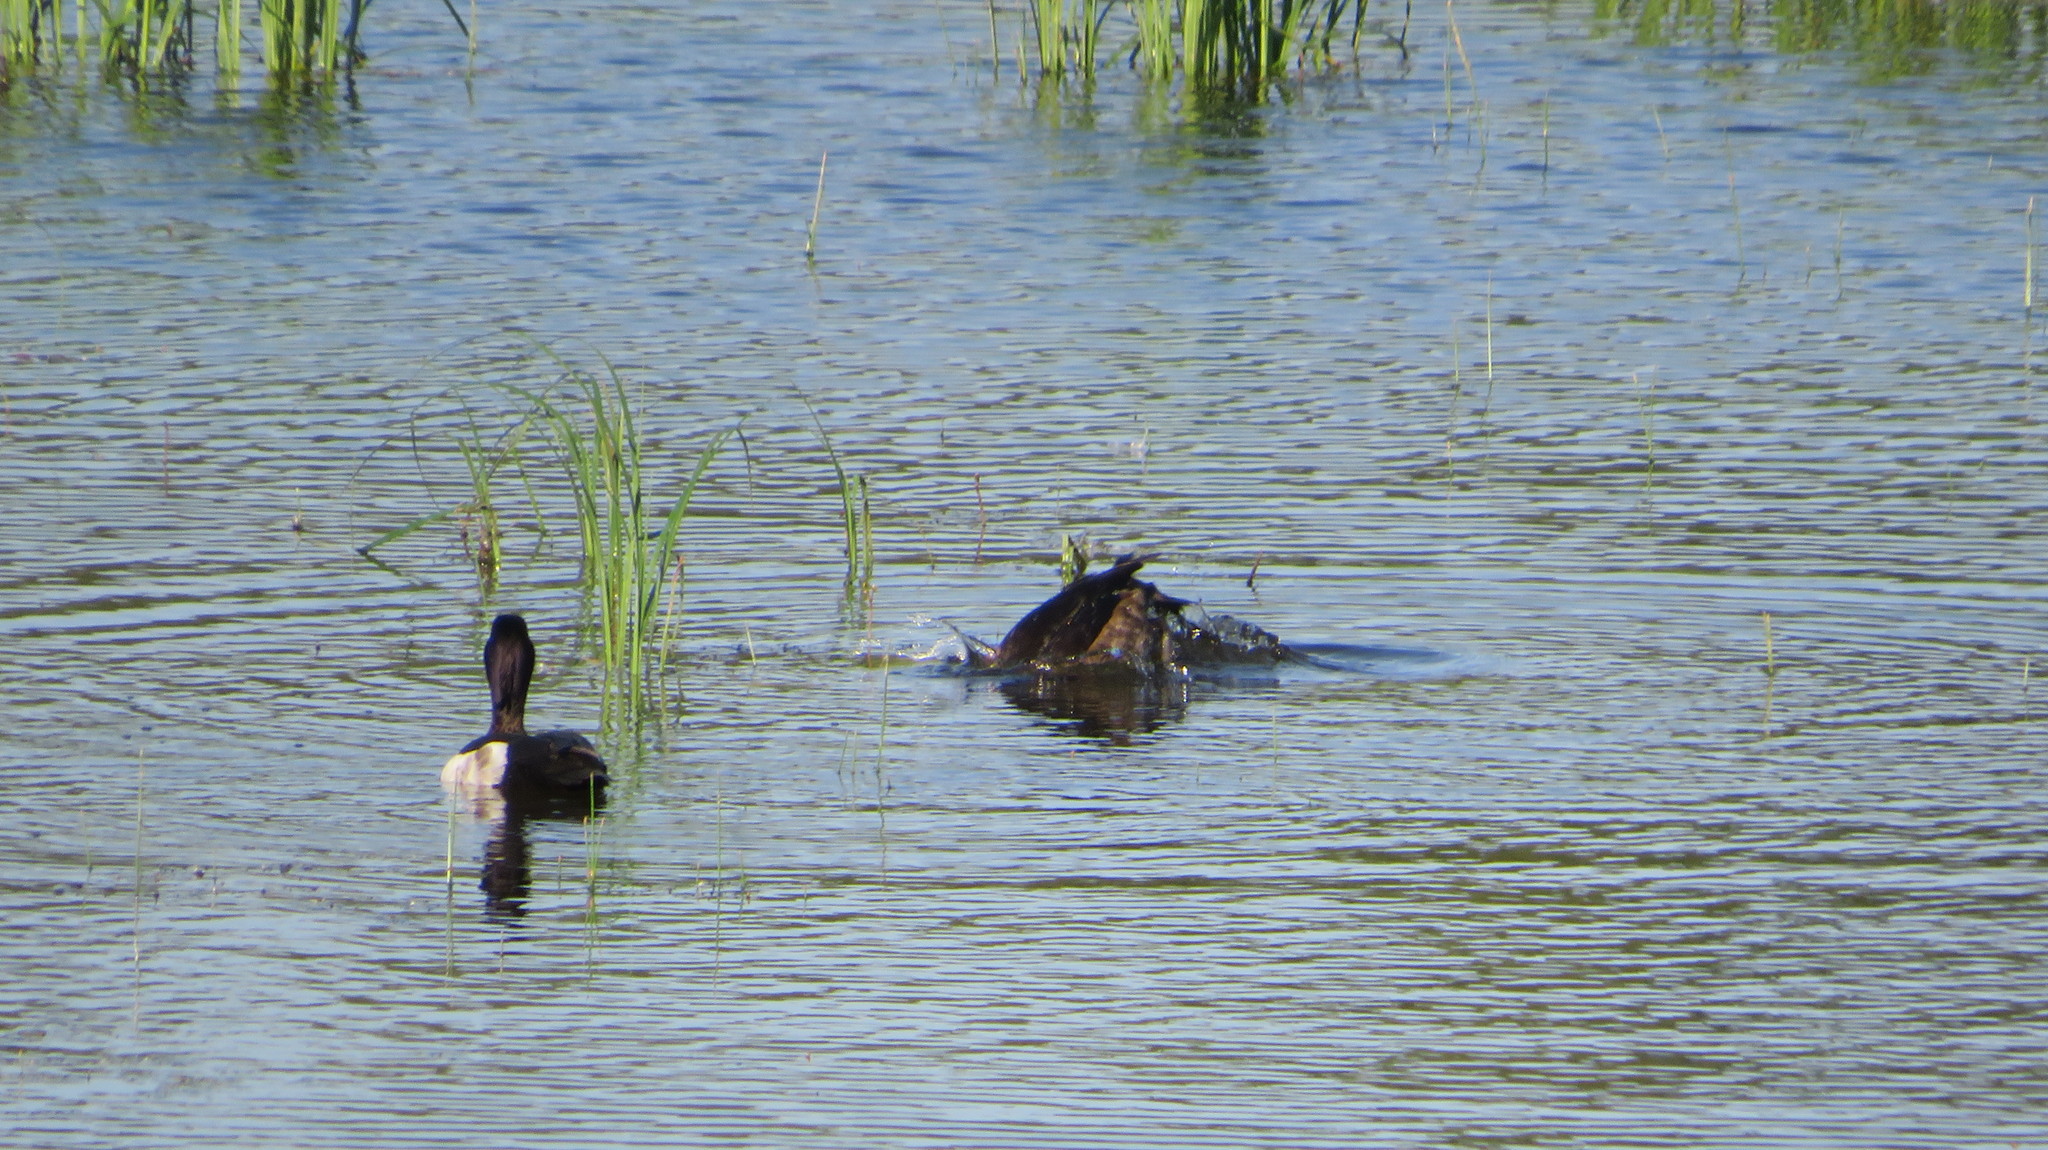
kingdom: Animalia
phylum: Chordata
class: Aves
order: Anseriformes
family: Anatidae
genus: Aythya
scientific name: Aythya fuligula
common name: Tufted duck
